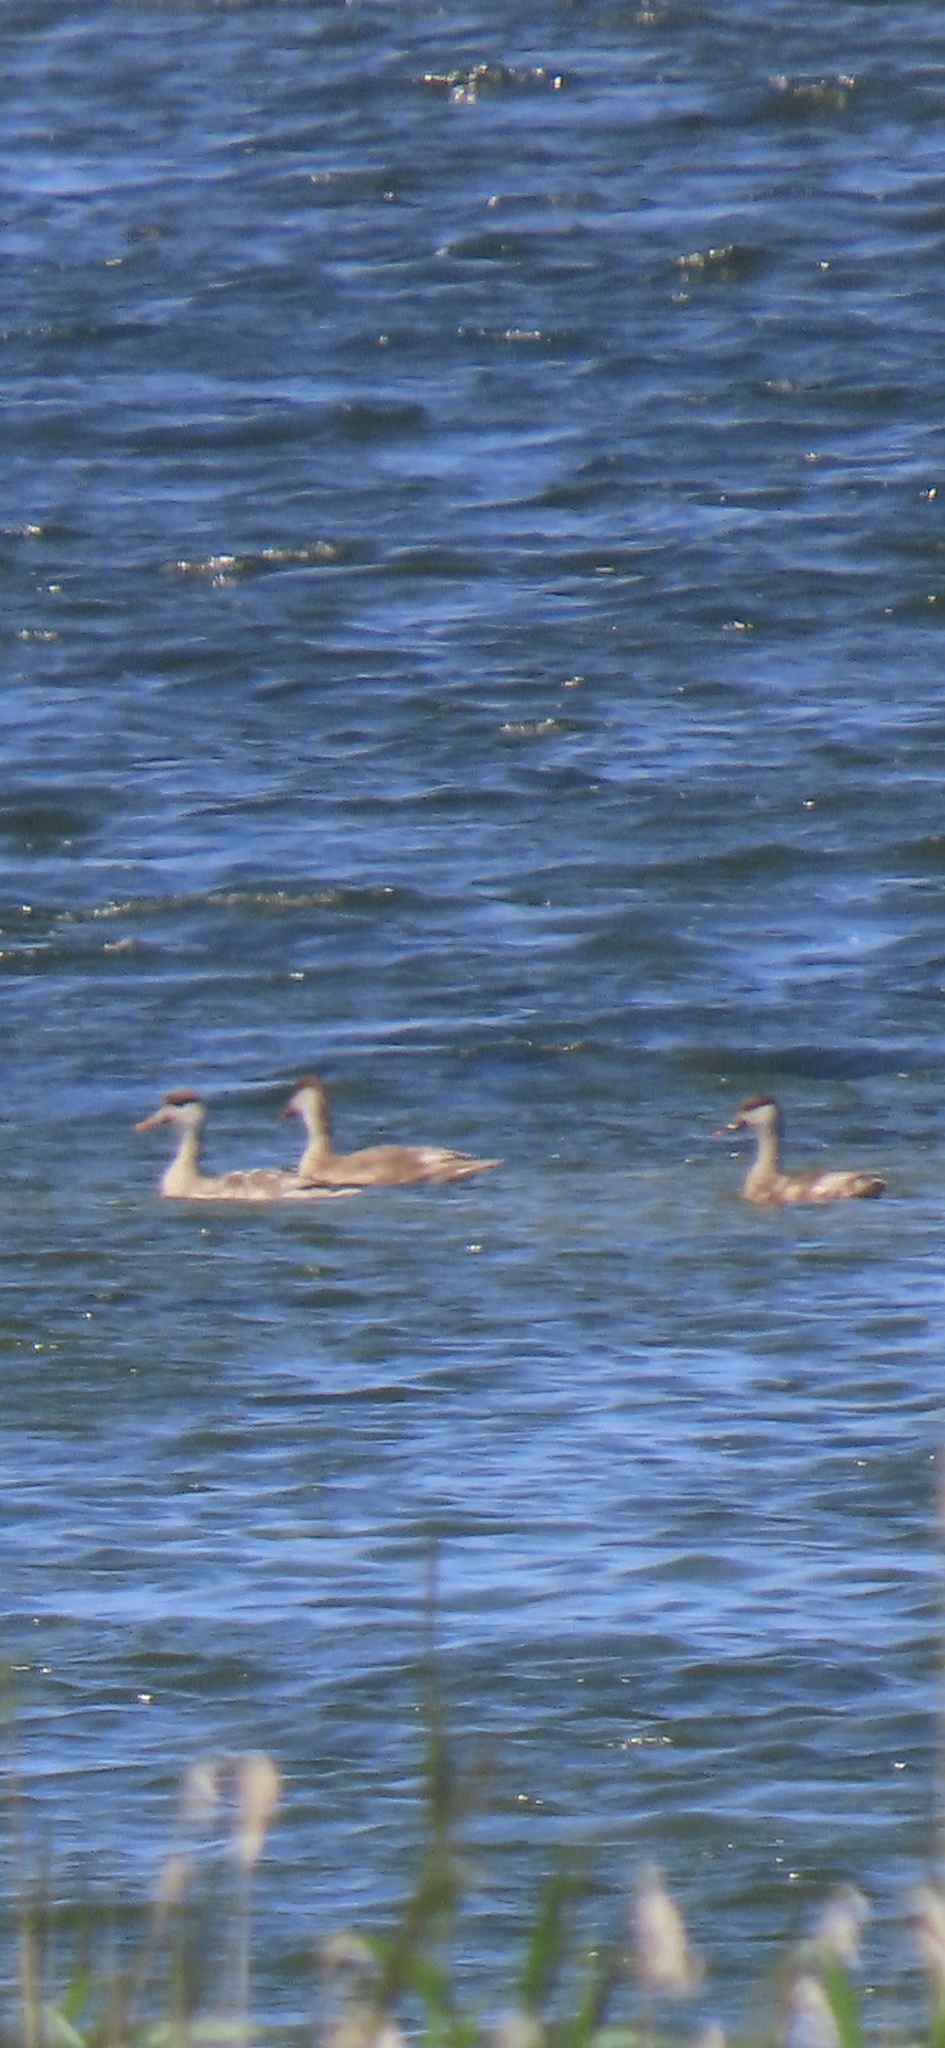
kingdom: Animalia
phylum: Chordata
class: Aves
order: Anseriformes
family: Anatidae
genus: Netta
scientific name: Netta rufina
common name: Red-crested pochard
